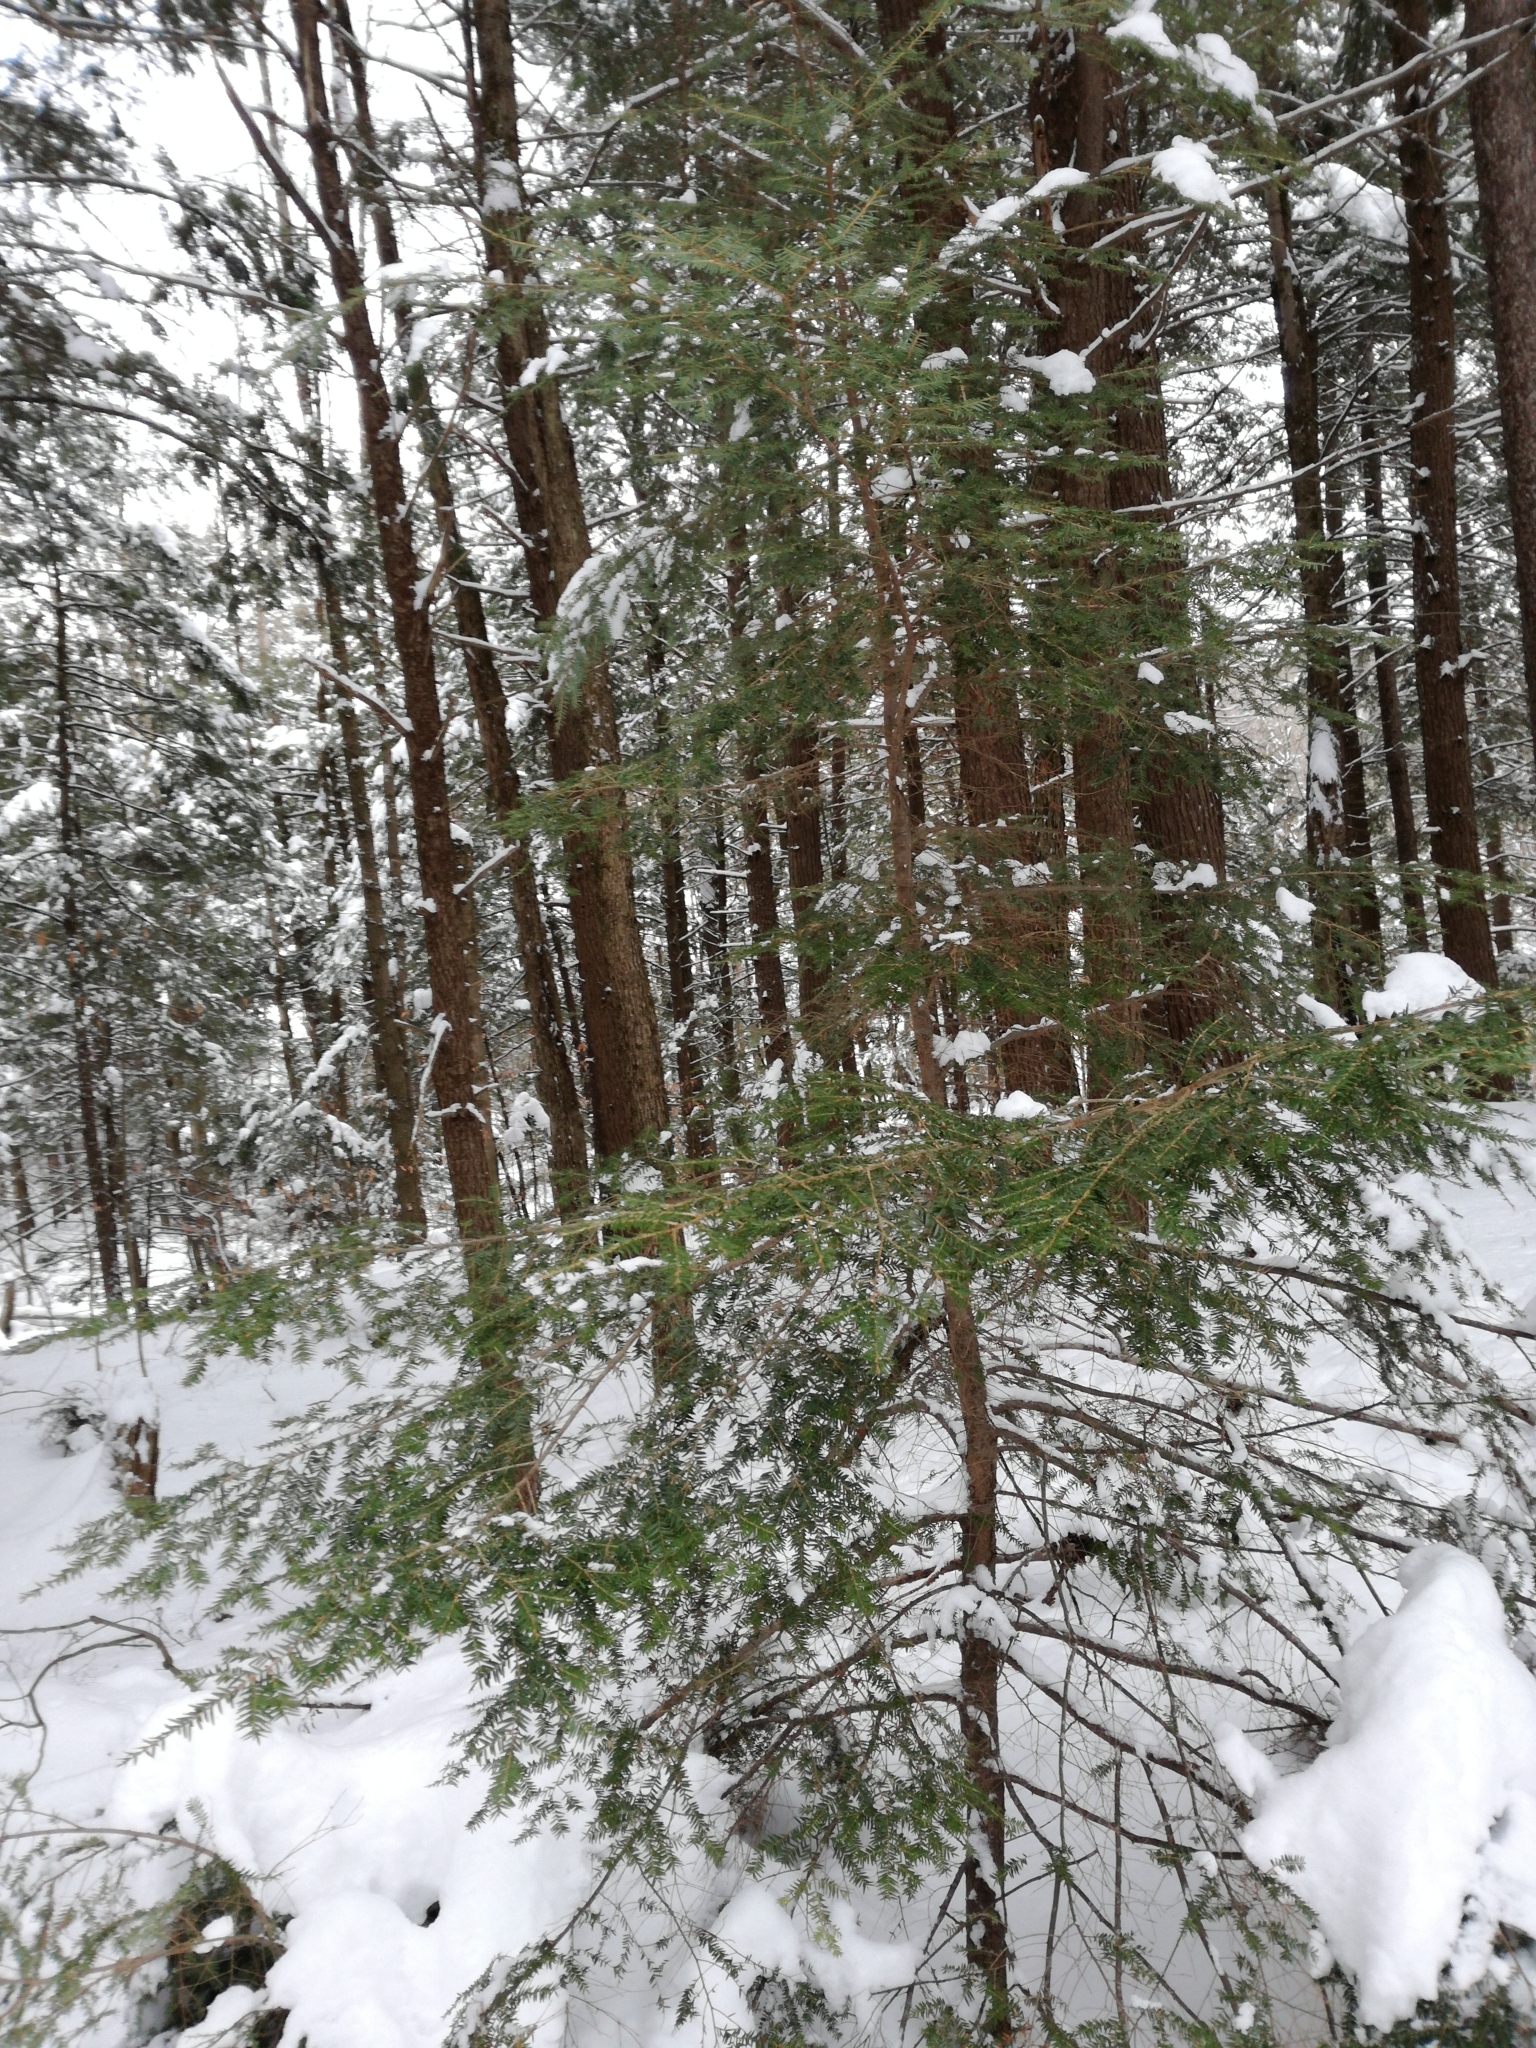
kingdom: Plantae
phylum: Tracheophyta
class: Pinopsida
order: Pinales
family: Pinaceae
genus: Tsuga
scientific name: Tsuga canadensis
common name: Eastern hemlock
